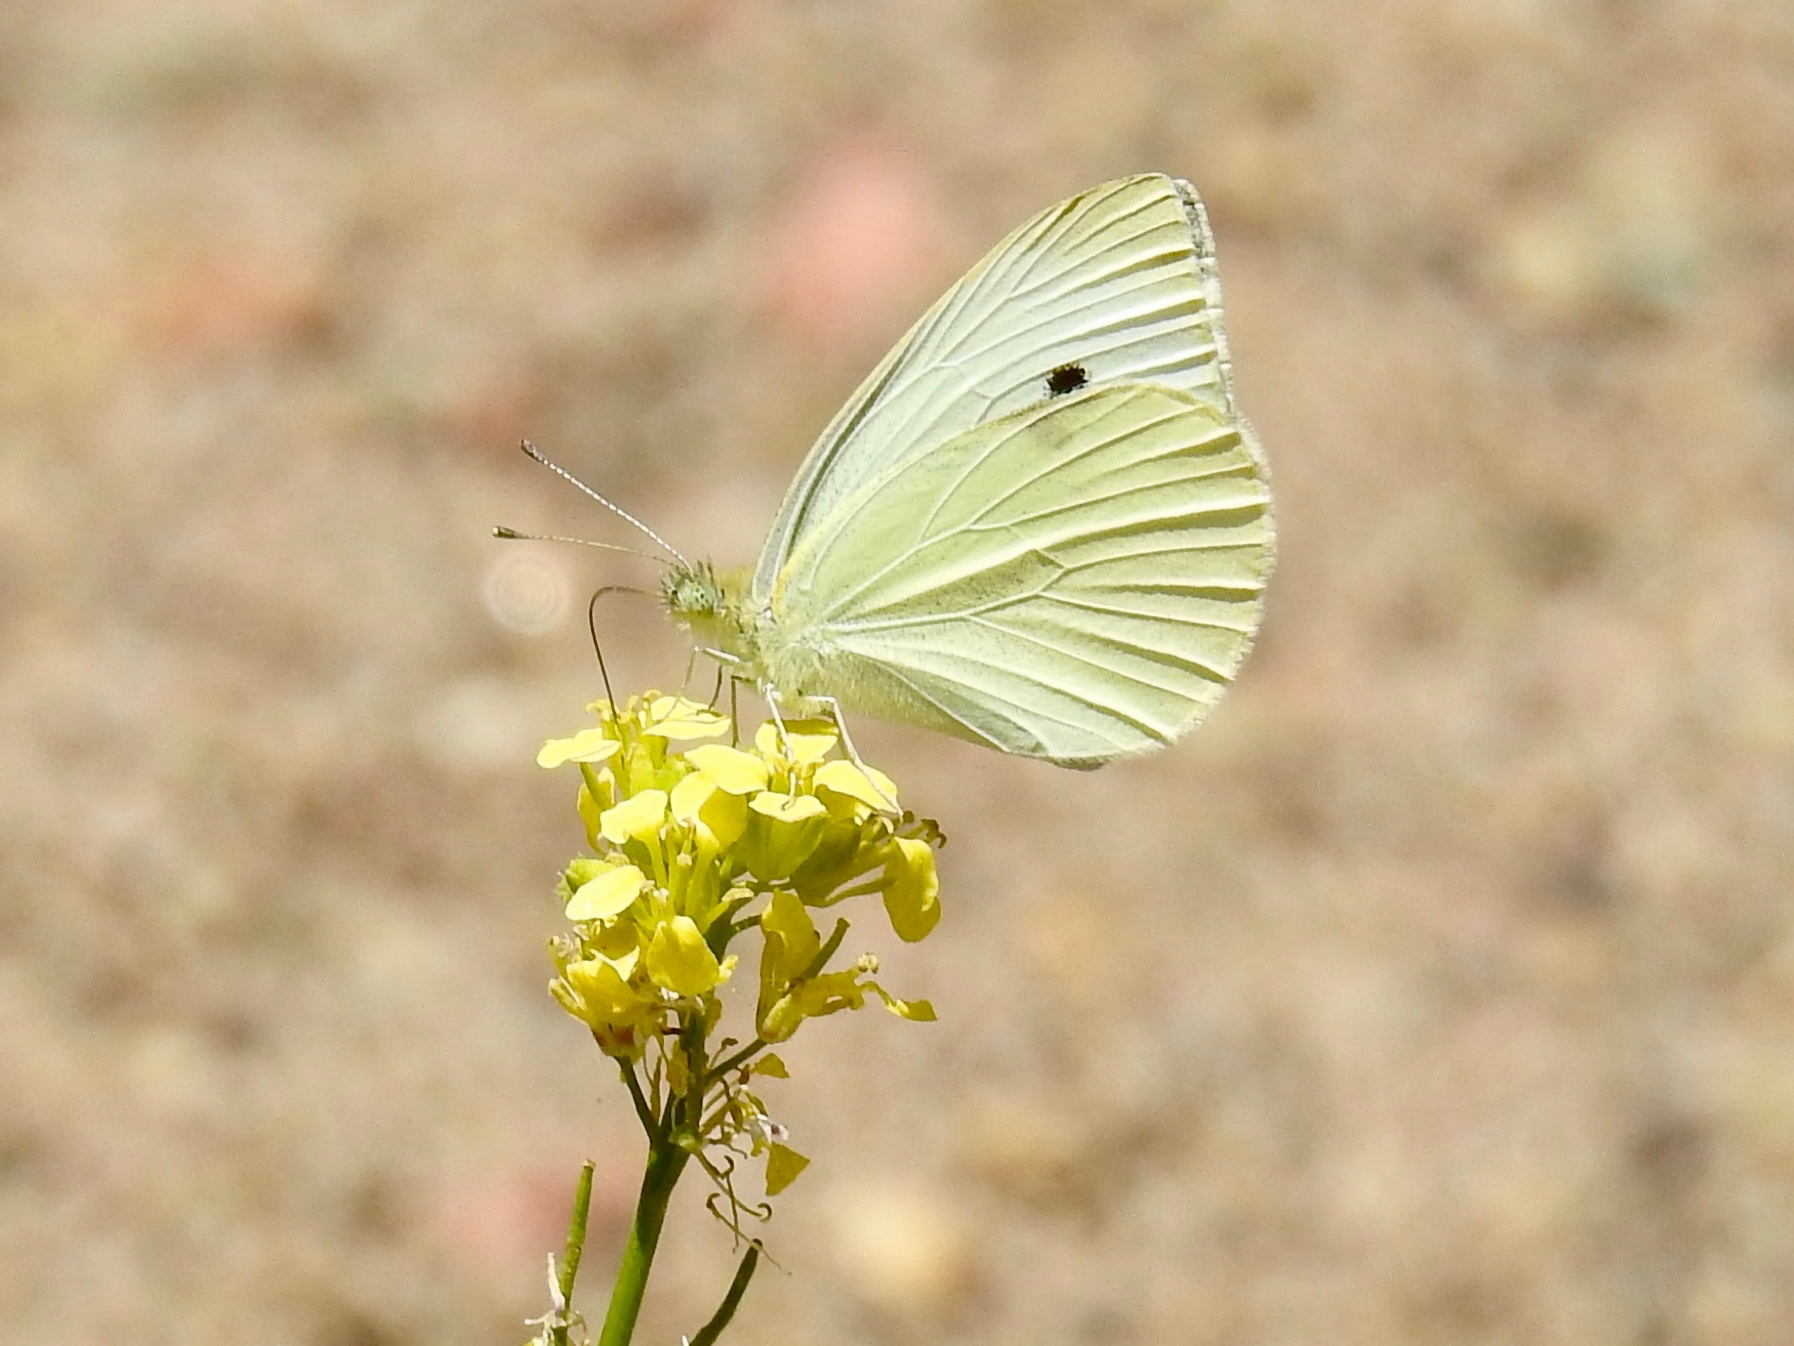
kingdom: Animalia
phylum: Arthropoda
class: Insecta
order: Lepidoptera
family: Pieridae
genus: Pieris
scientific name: Pieris rapae
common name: Small white
